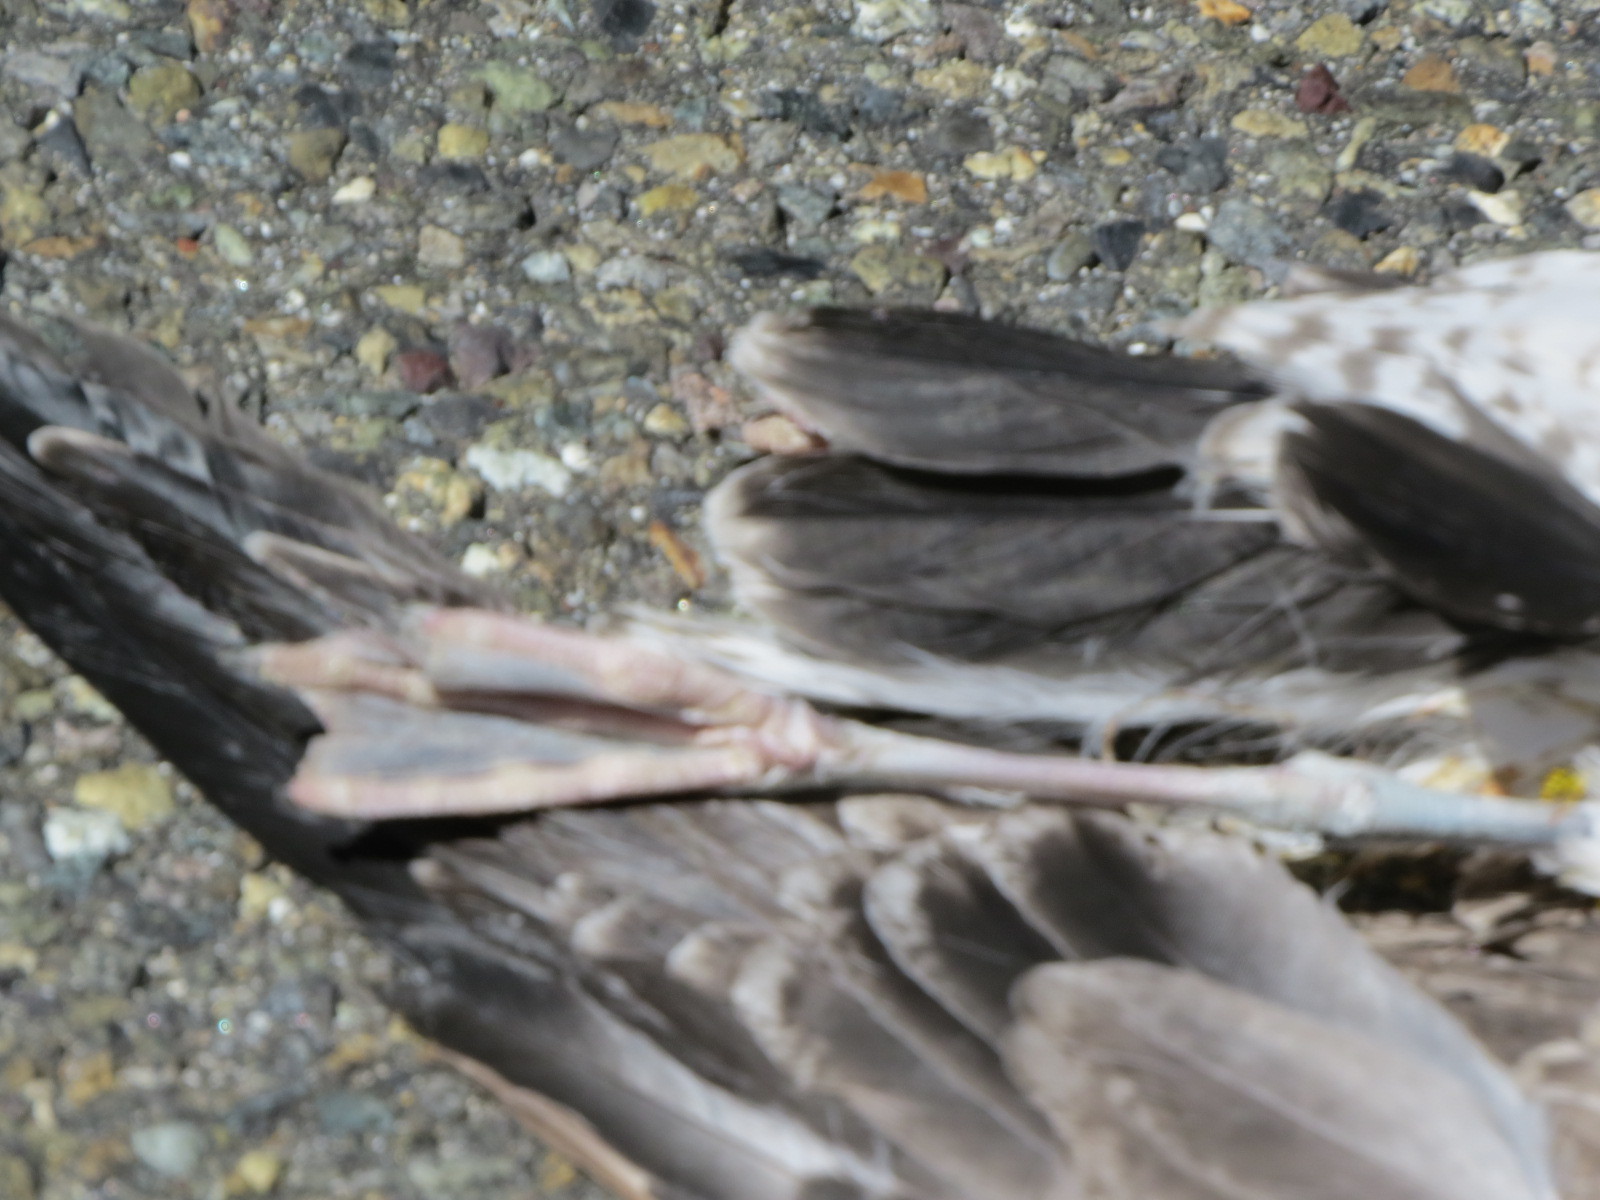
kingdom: Animalia
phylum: Chordata
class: Aves
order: Charadriiformes
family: Laridae
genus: Larus
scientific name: Larus delawarensis
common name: Ring-billed gull
